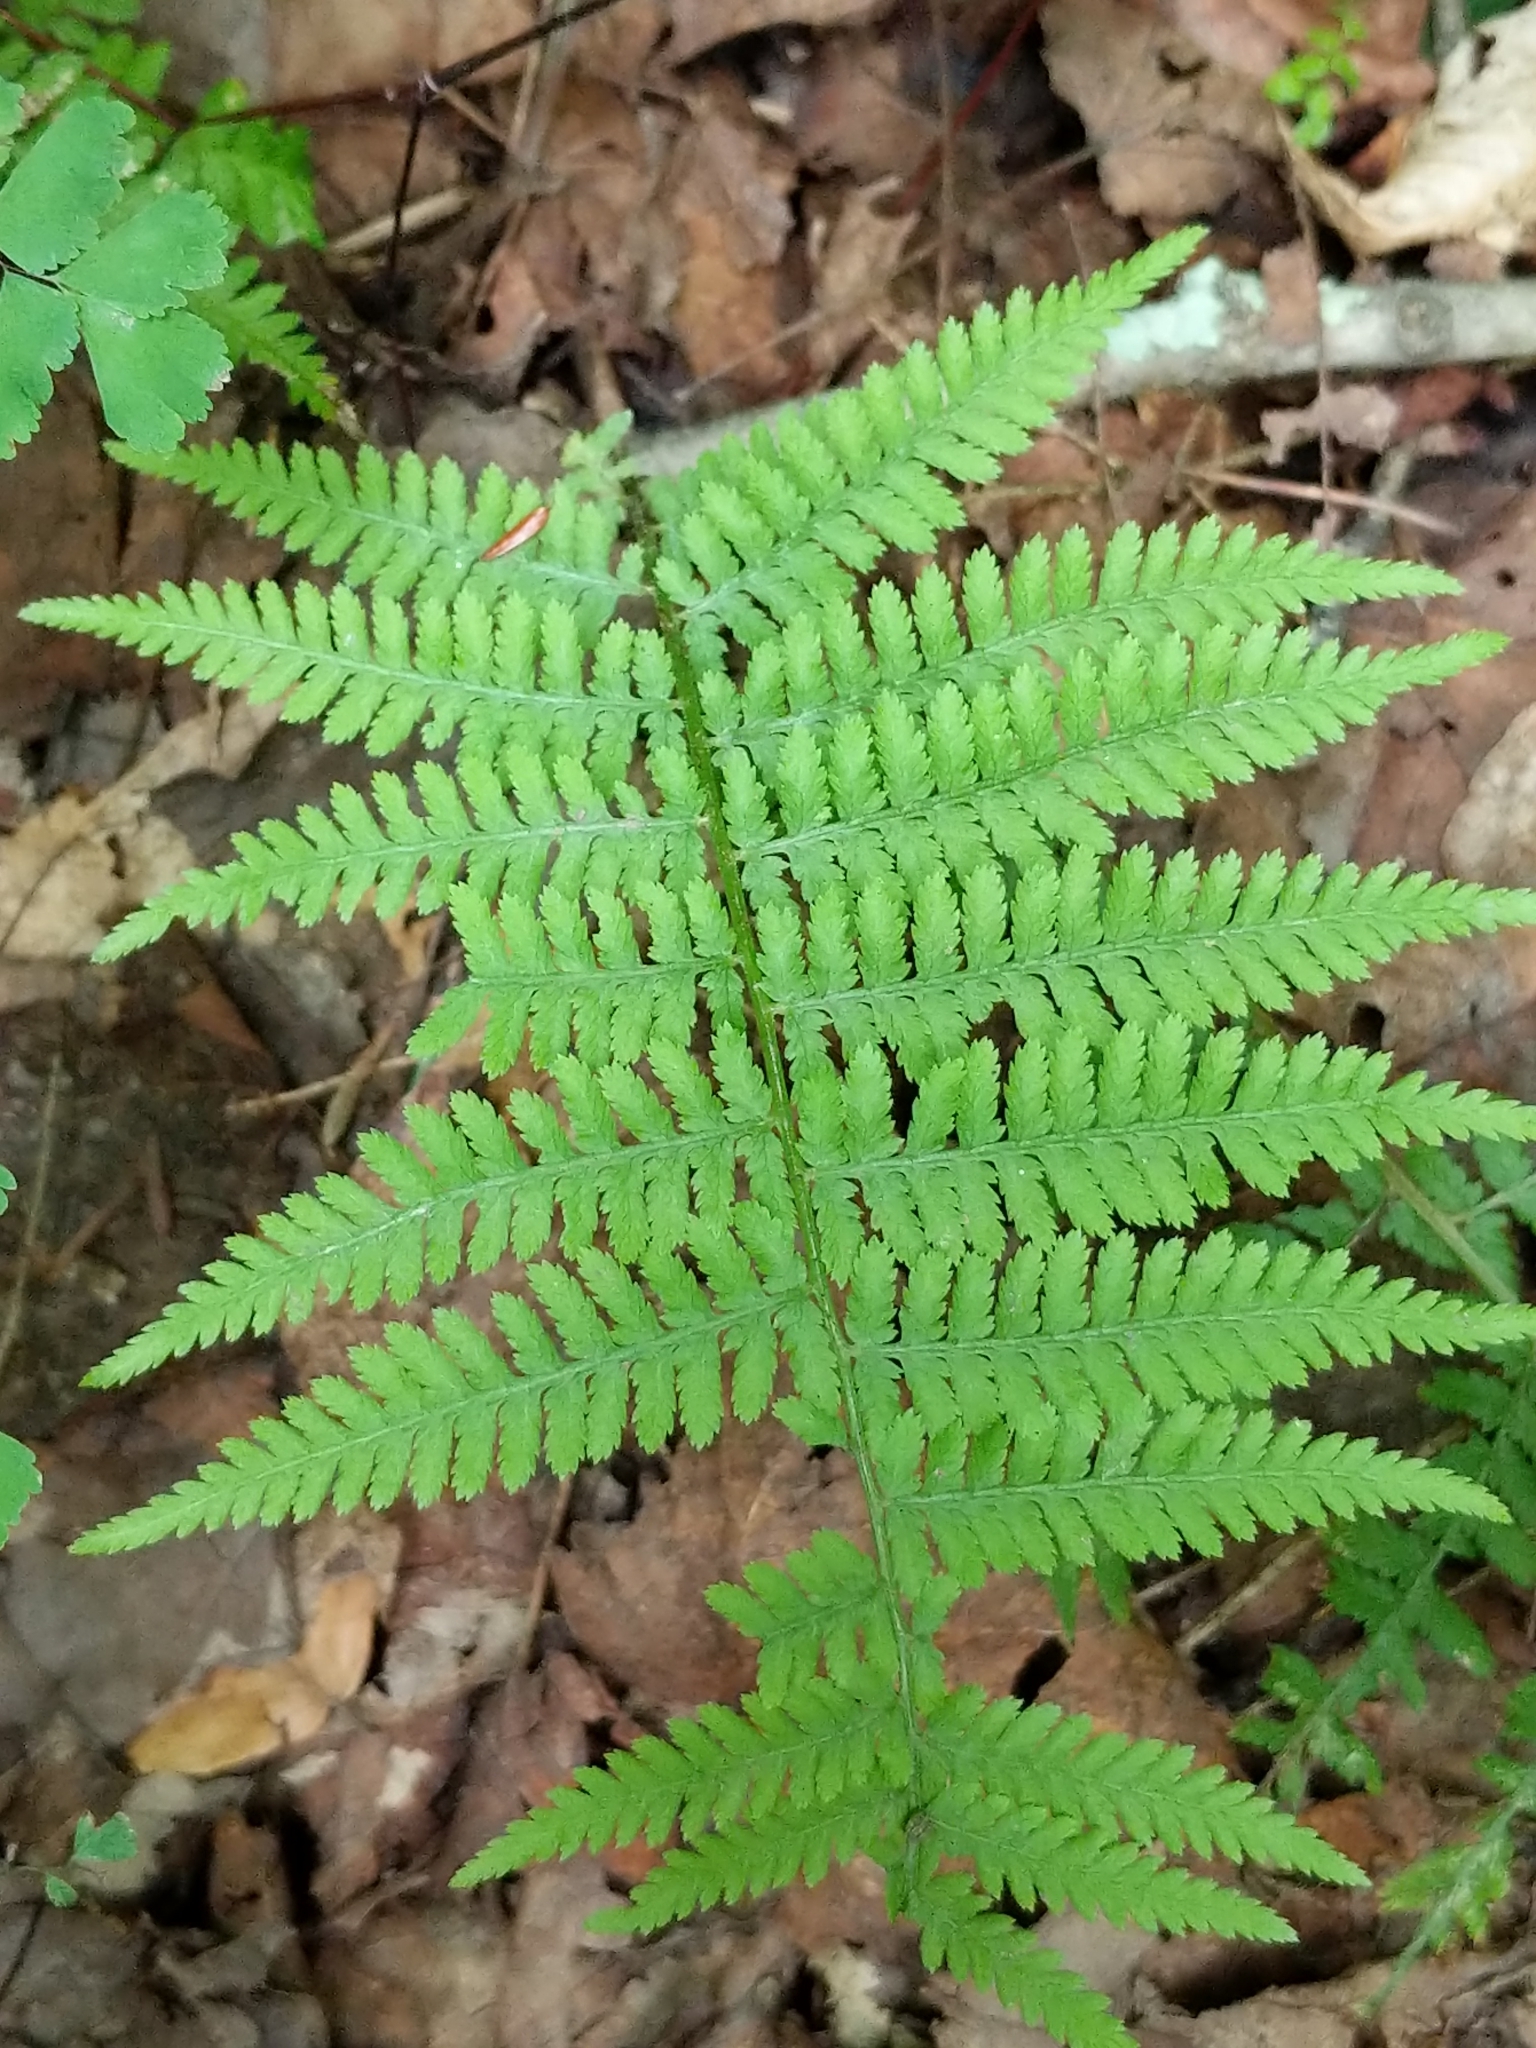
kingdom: Plantae
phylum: Tracheophyta
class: Polypodiopsida
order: Polypodiales
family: Athyriaceae
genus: Athyrium
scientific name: Athyrium angustum
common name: Northern lady fern
